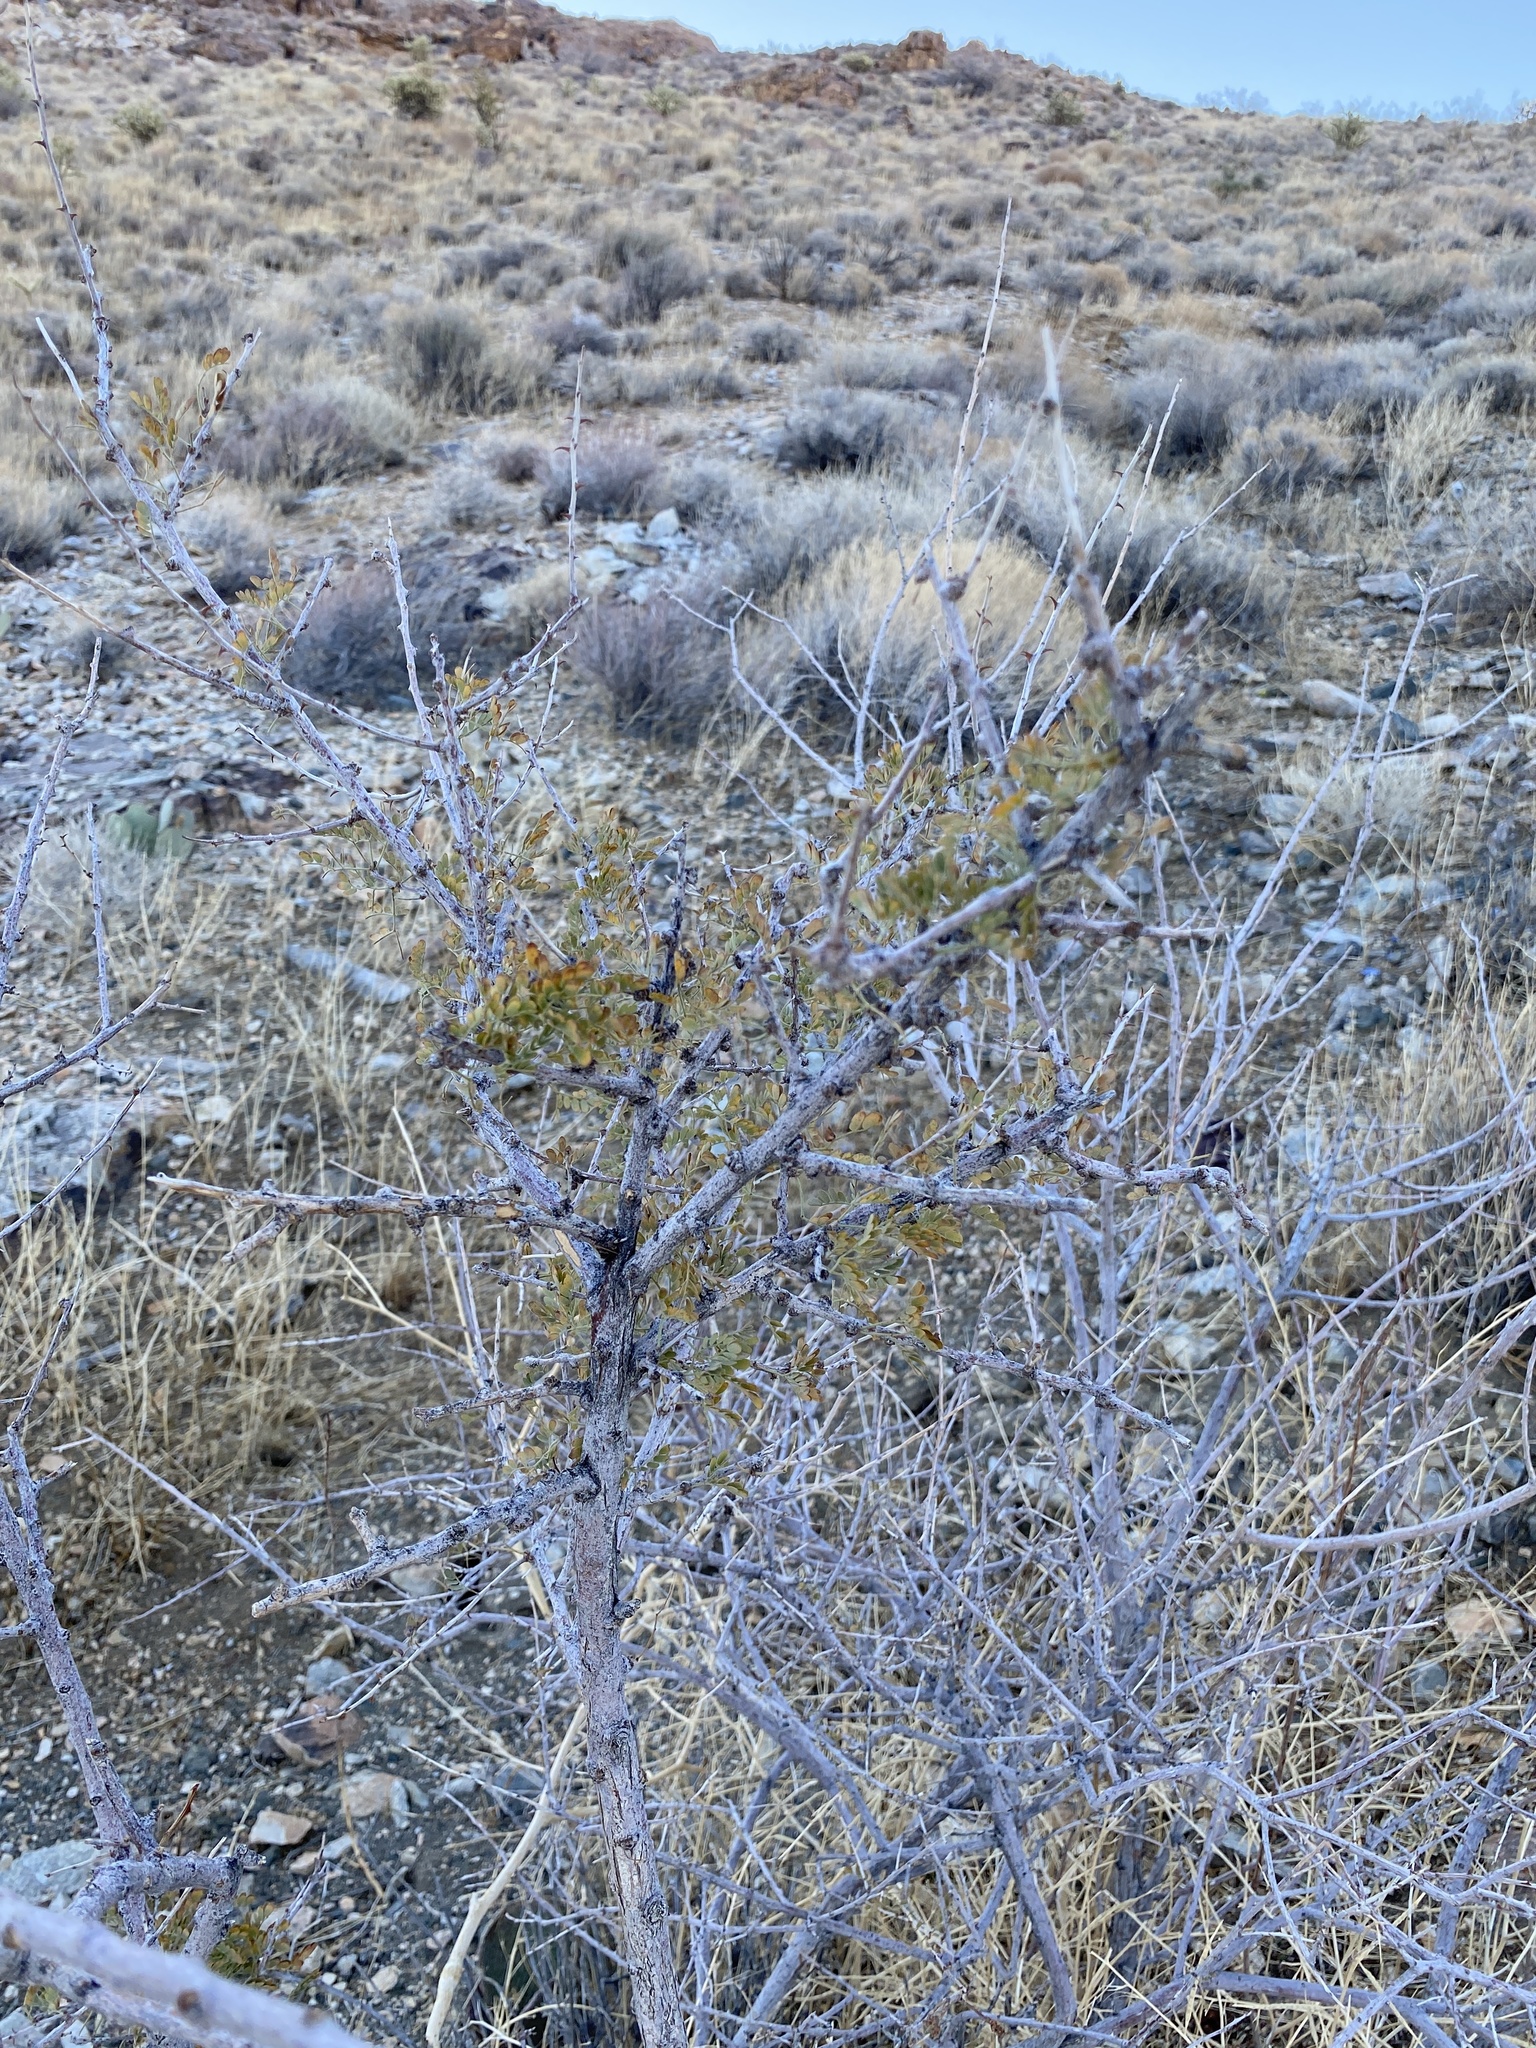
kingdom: Plantae
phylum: Tracheophyta
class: Magnoliopsida
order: Fabales
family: Fabaceae
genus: Senegalia
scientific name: Senegalia greggii
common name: Texas-mimosa
